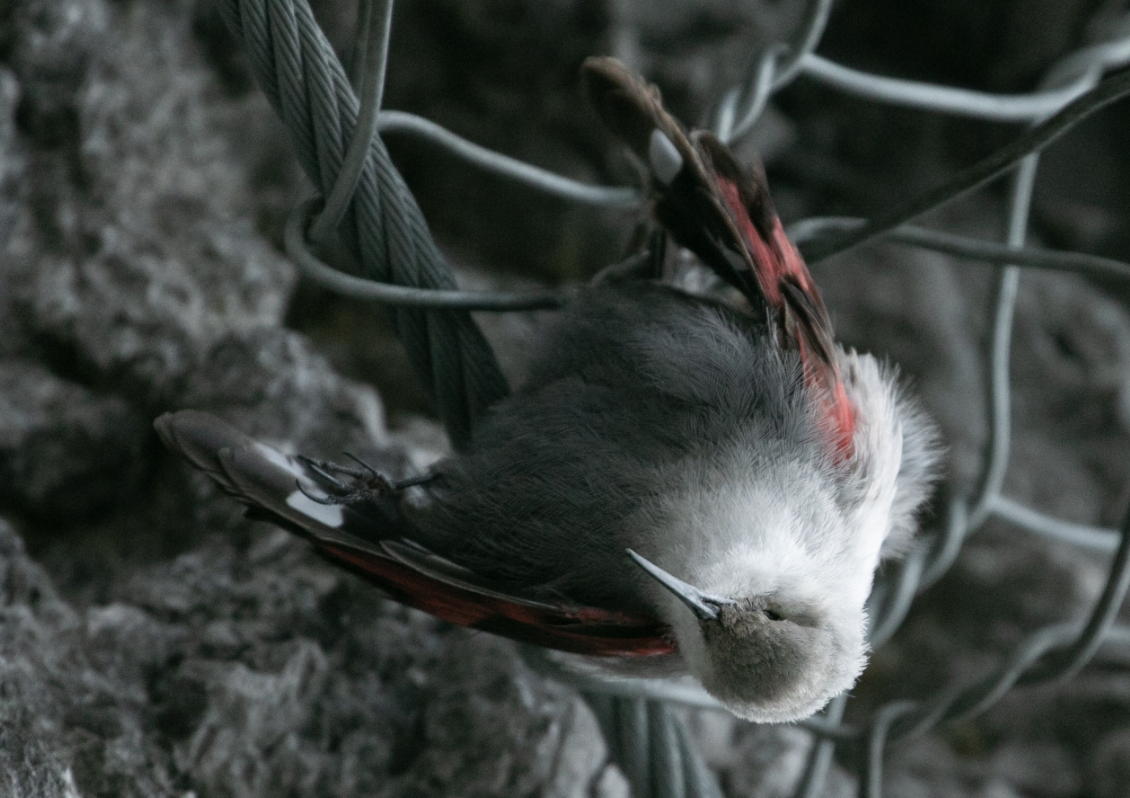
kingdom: Animalia
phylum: Chordata
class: Aves
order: Passeriformes
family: Tichodromidae
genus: Tichodroma
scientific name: Tichodroma muraria
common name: Wallcreeper
